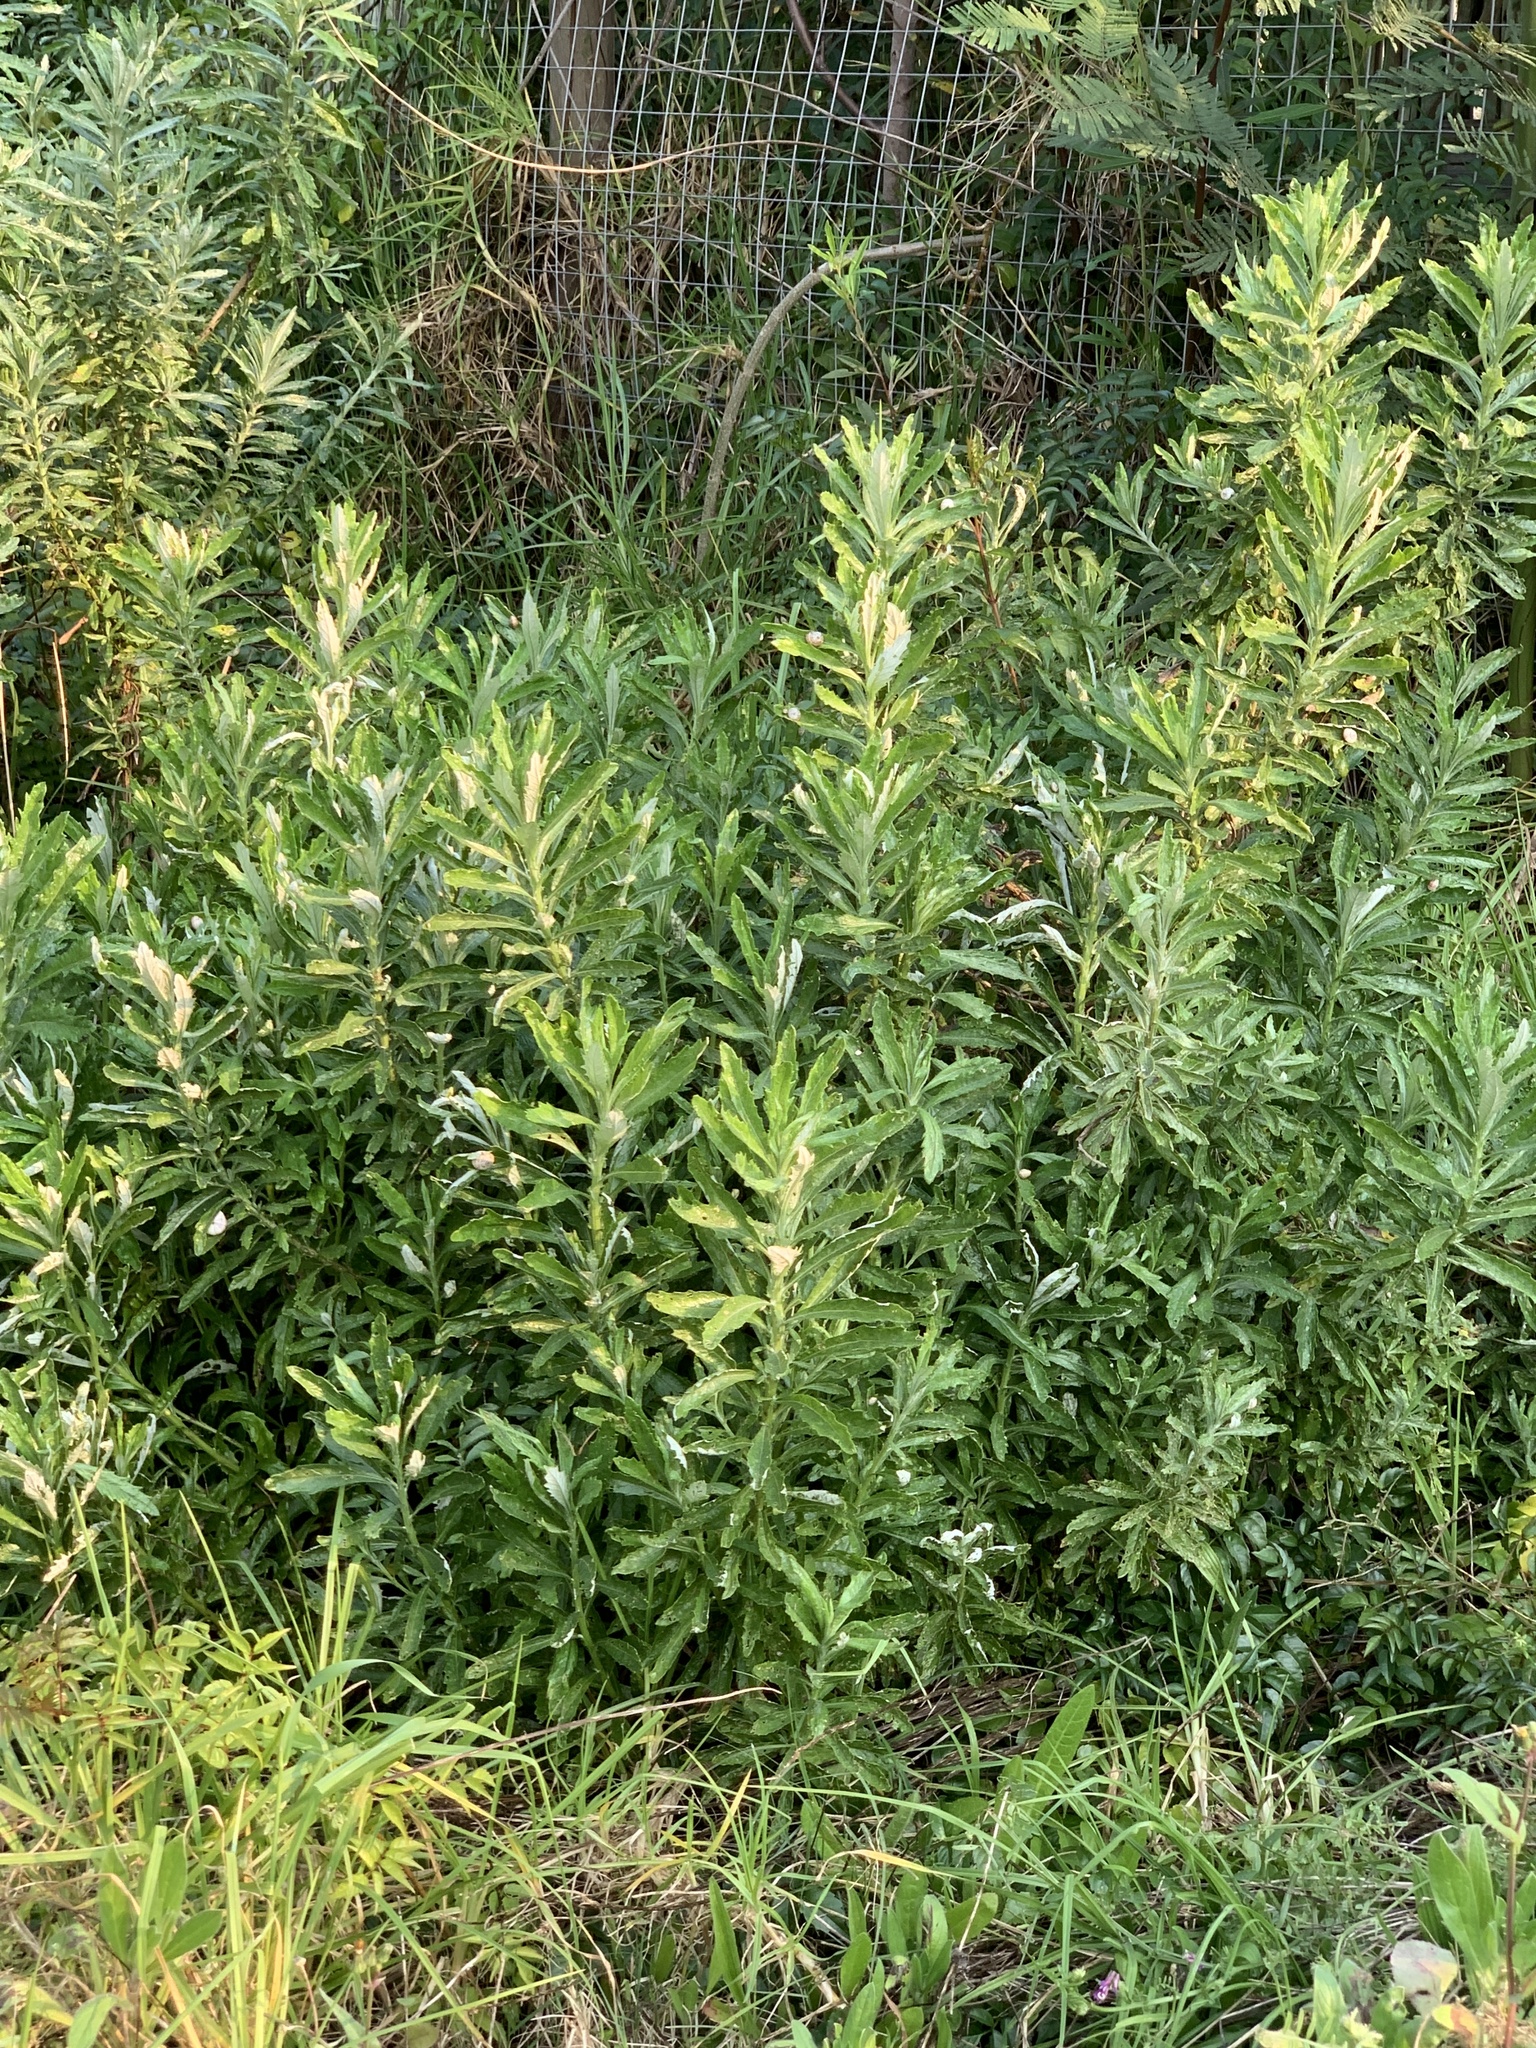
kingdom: Plantae
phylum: Tracheophyta
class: Magnoliopsida
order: Asterales
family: Asteraceae
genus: Senecio
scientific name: Senecio pterophorus
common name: Shoddy ragwort
